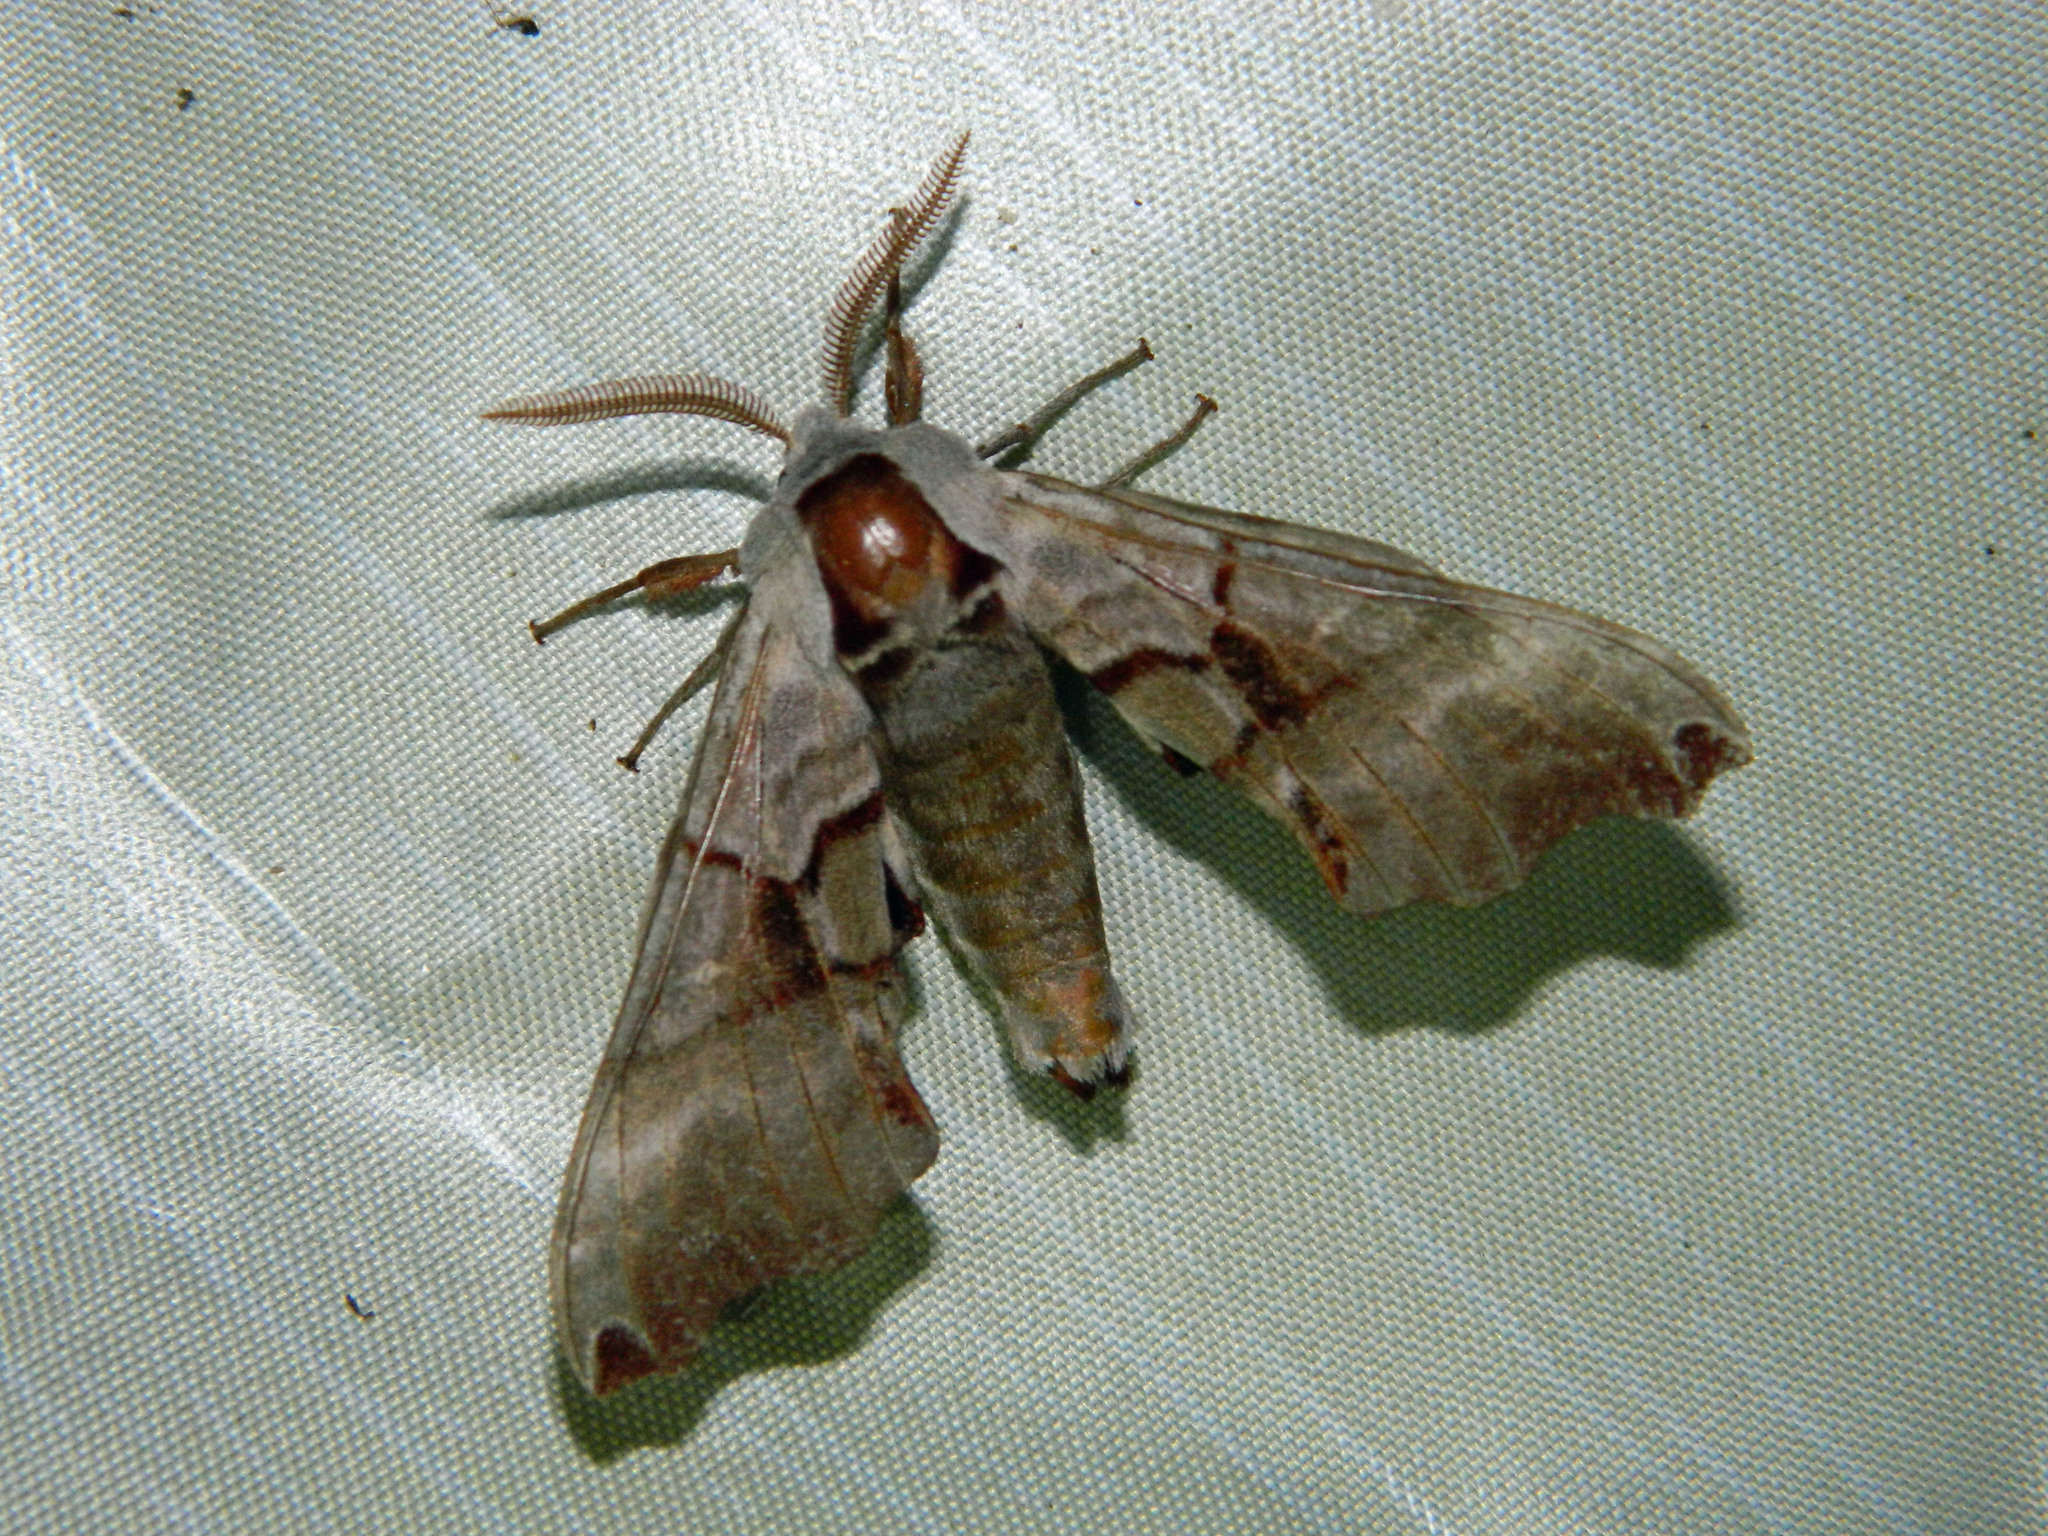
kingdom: Animalia
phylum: Arthropoda
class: Insecta
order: Lepidoptera
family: Sphingidae
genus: Smerinthus
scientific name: Smerinthus jamaicensis
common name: Twin spotted sphinx
